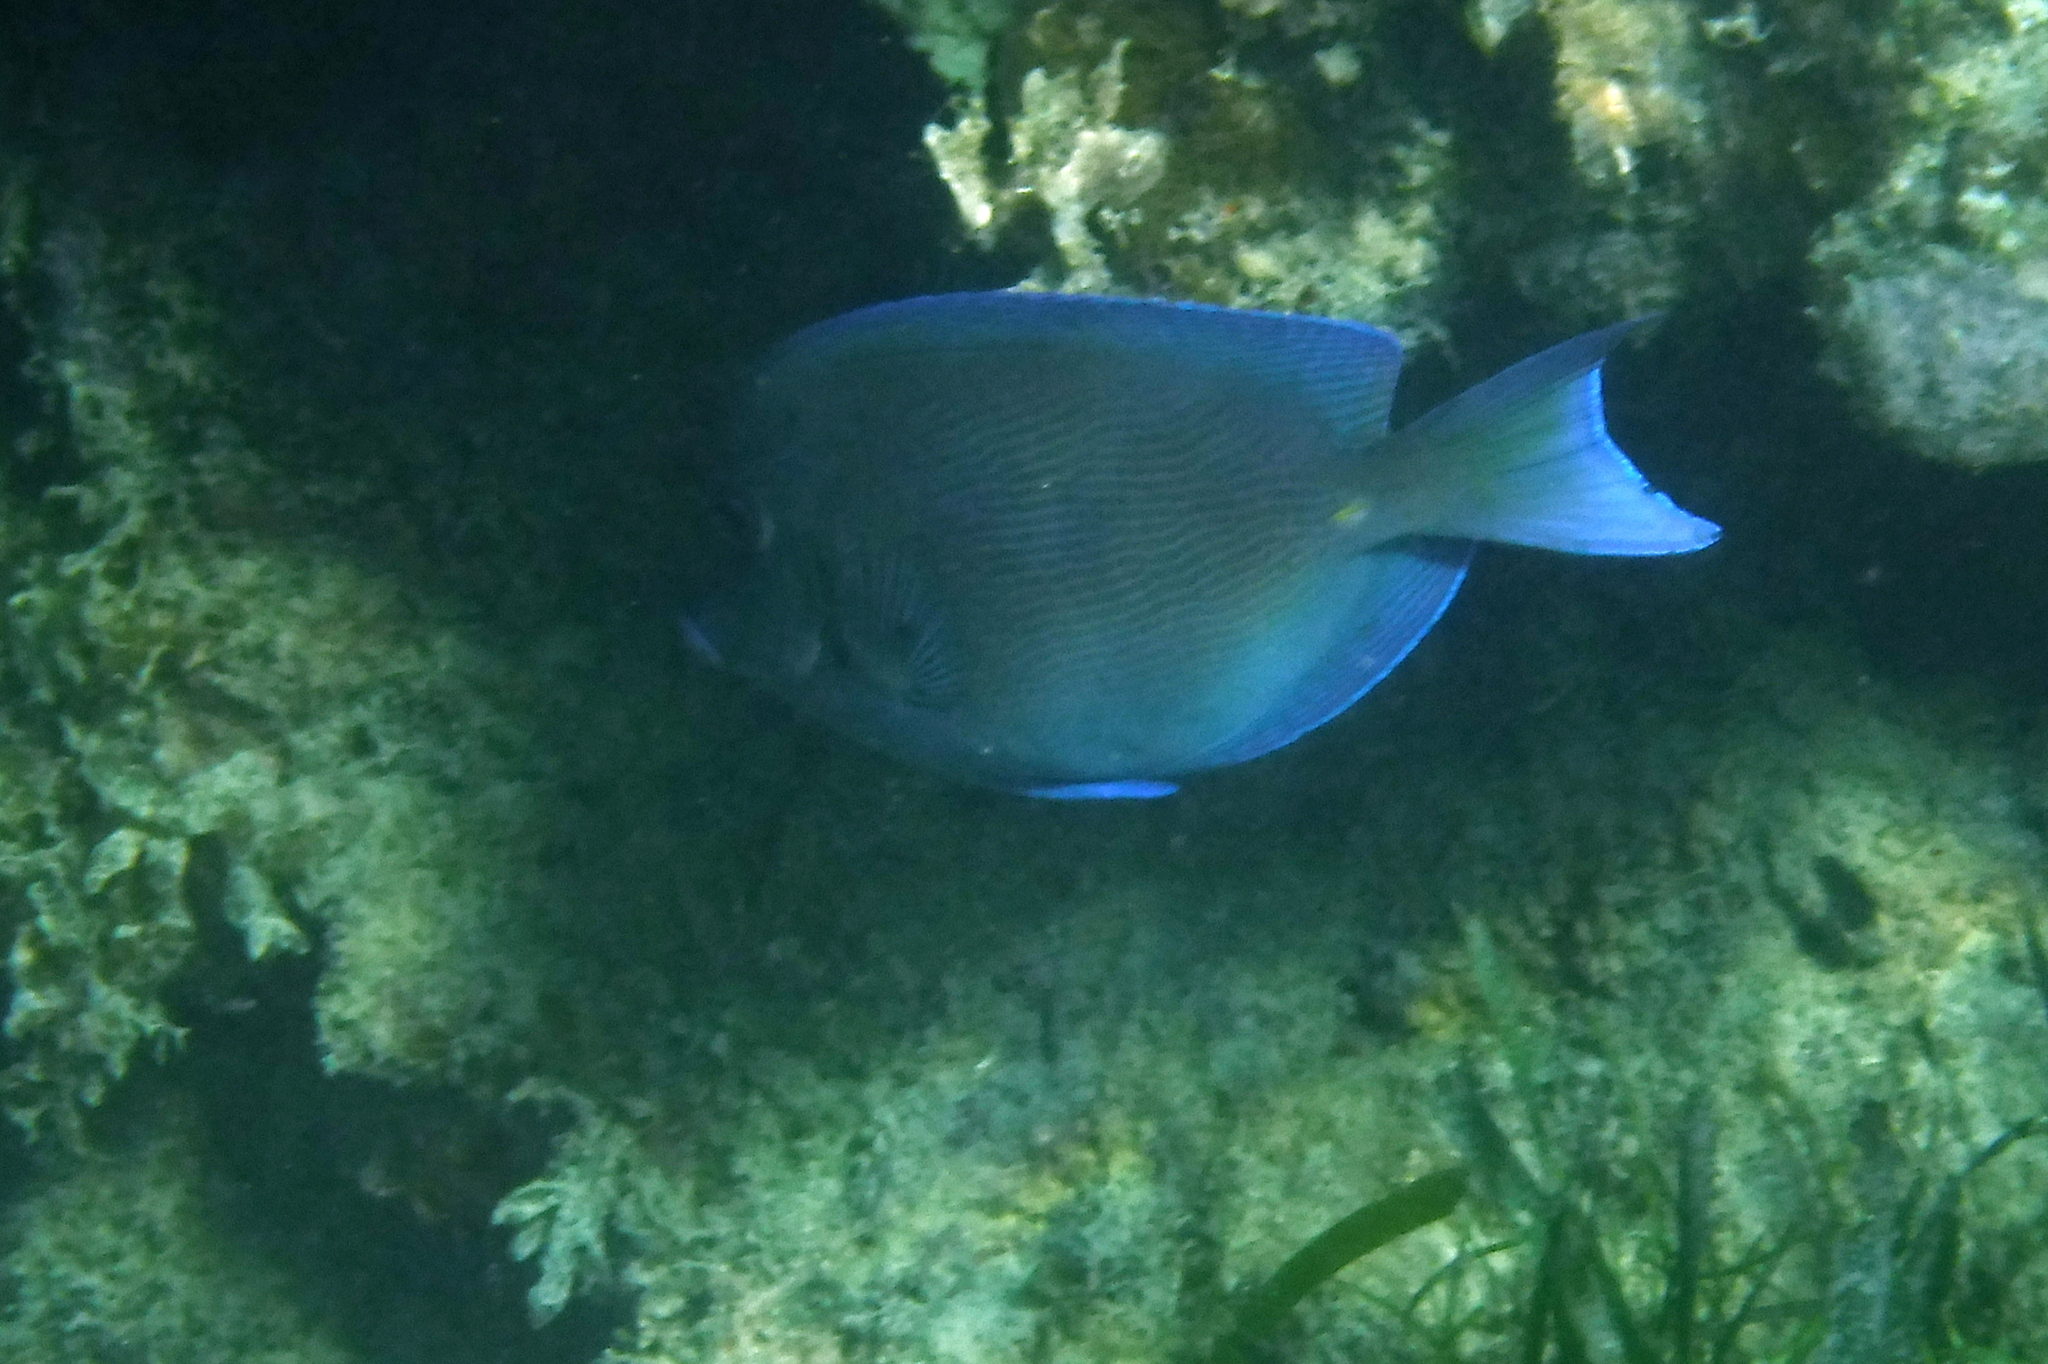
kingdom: Animalia
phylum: Chordata
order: Perciformes
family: Acanthuridae
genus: Acanthurus
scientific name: Acanthurus coeruleus
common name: Blue tang
